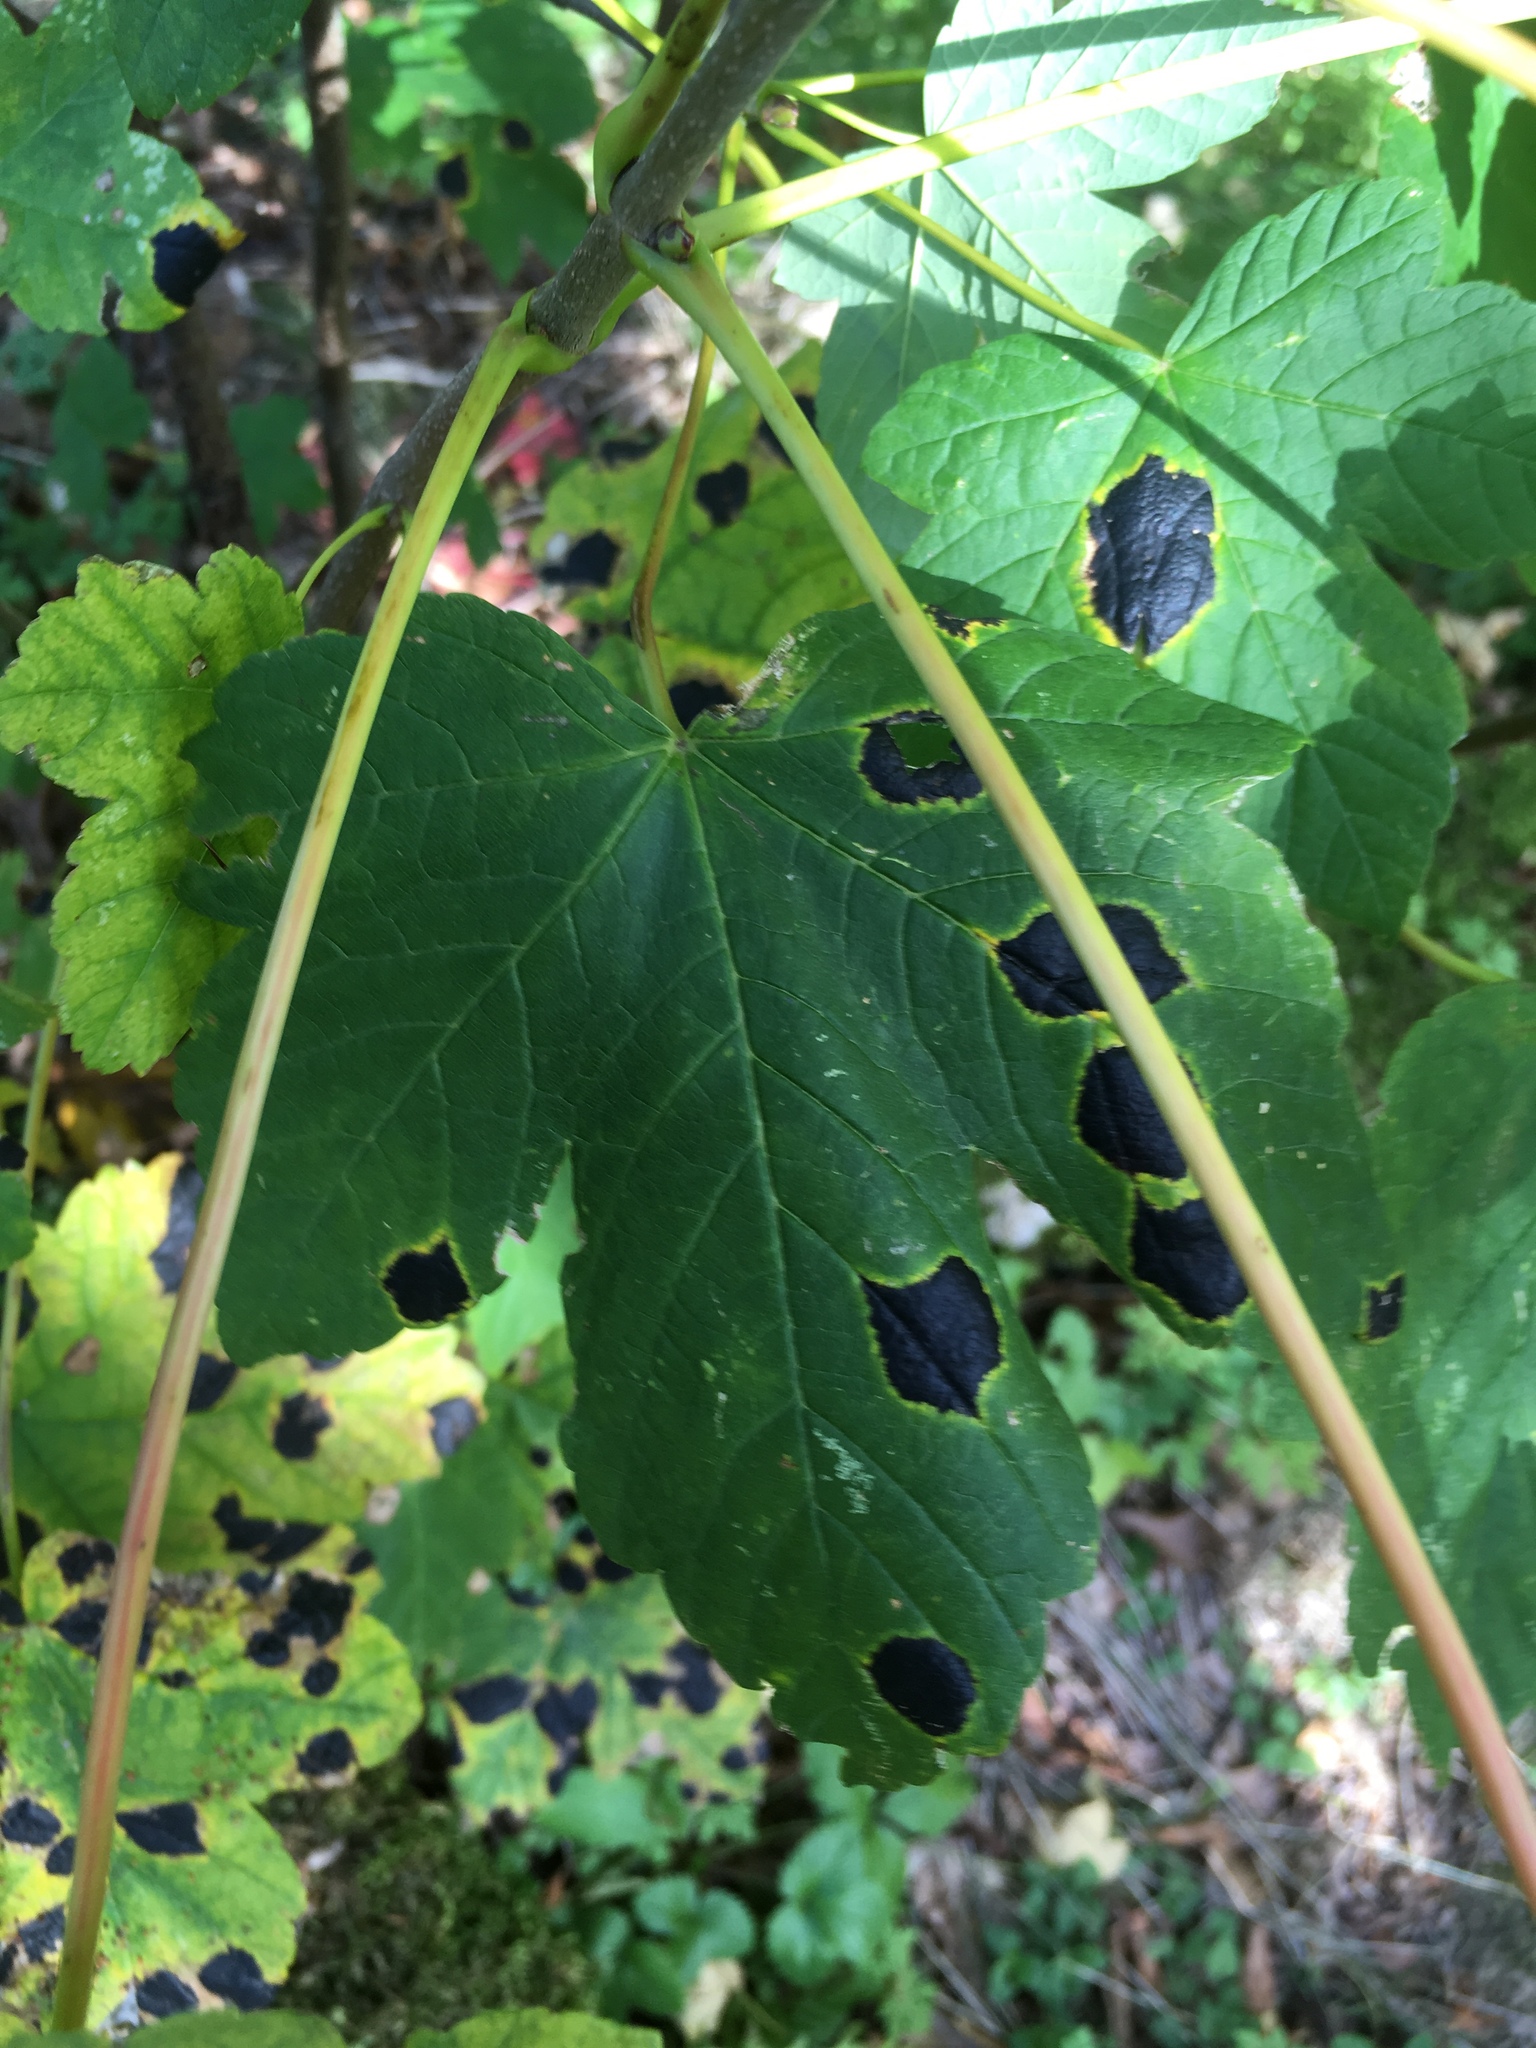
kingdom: Fungi
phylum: Ascomycota
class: Leotiomycetes
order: Rhytismatales
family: Rhytismataceae
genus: Rhytisma
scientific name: Rhytisma acerinum
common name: European tar spot
